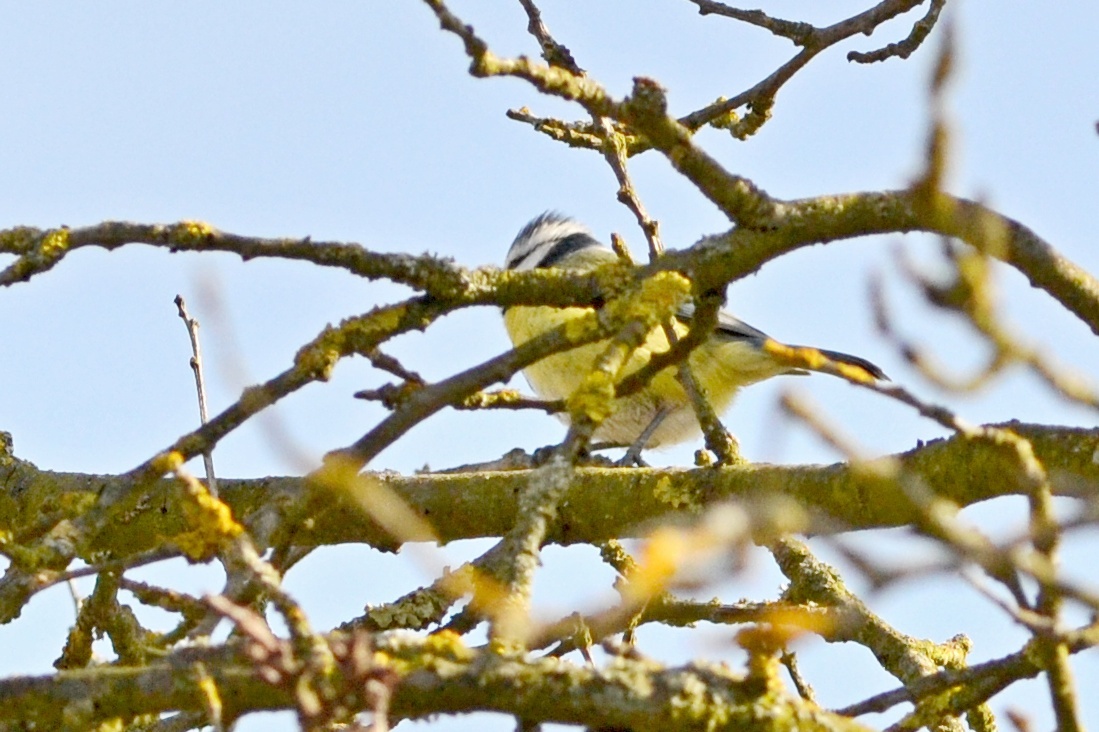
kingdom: Animalia
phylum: Chordata
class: Aves
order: Passeriformes
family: Paridae
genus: Cyanistes
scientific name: Cyanistes caeruleus
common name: Eurasian blue tit
